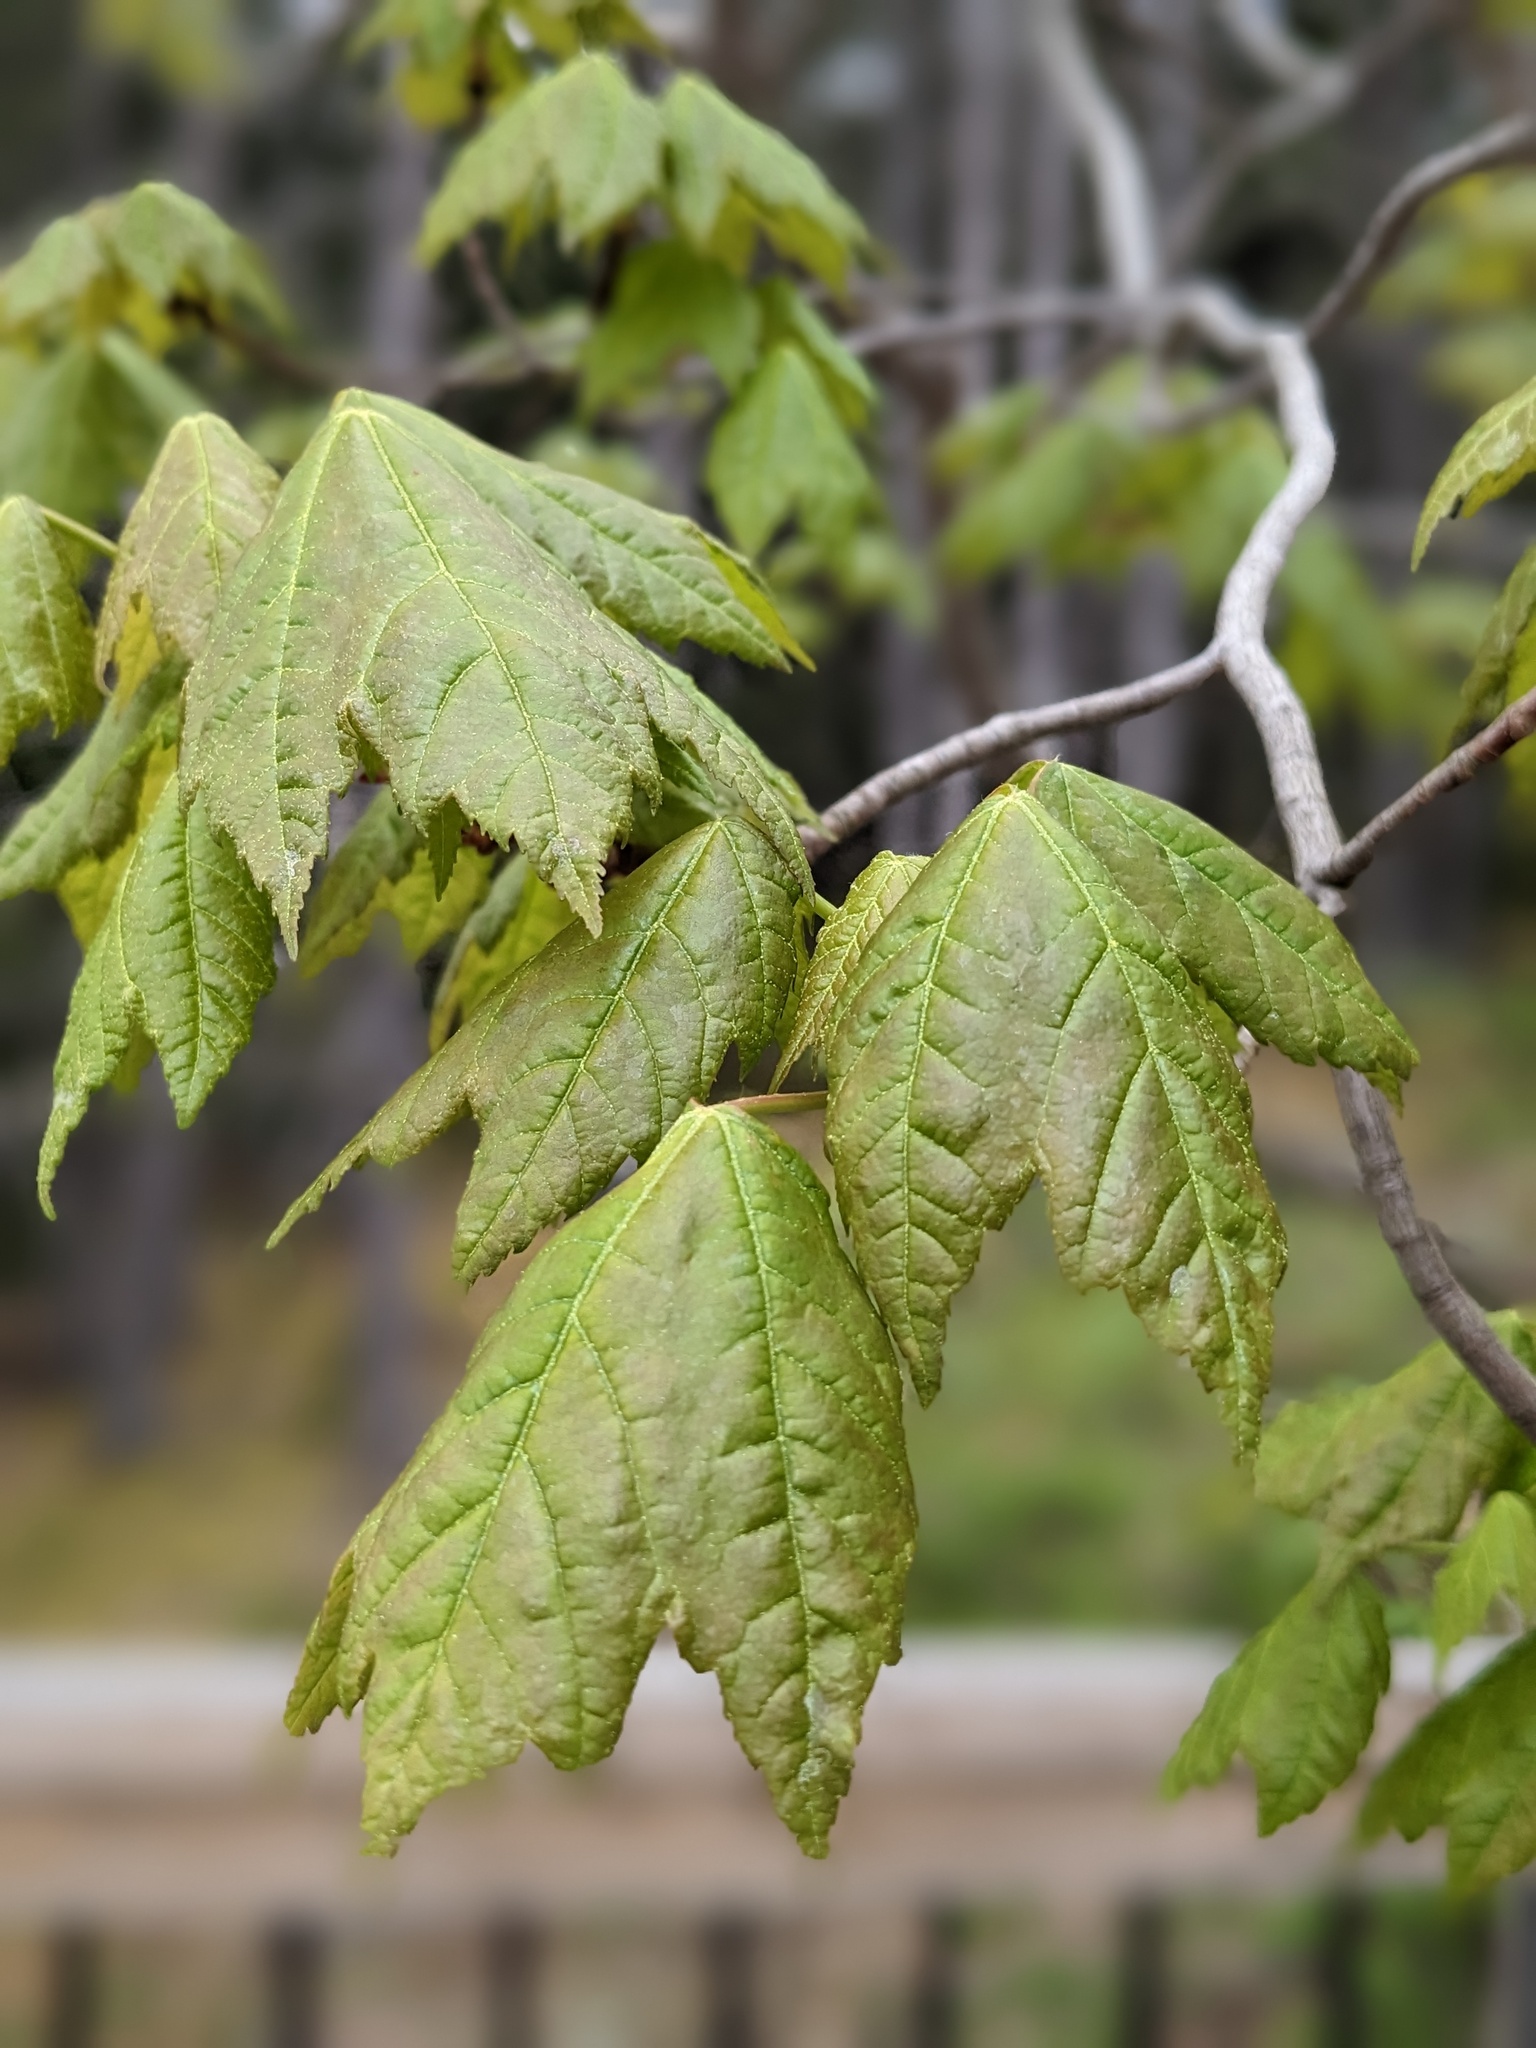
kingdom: Plantae
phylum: Tracheophyta
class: Magnoliopsida
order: Sapindales
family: Sapindaceae
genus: Acer
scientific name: Acer saccharum
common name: Sugar maple
